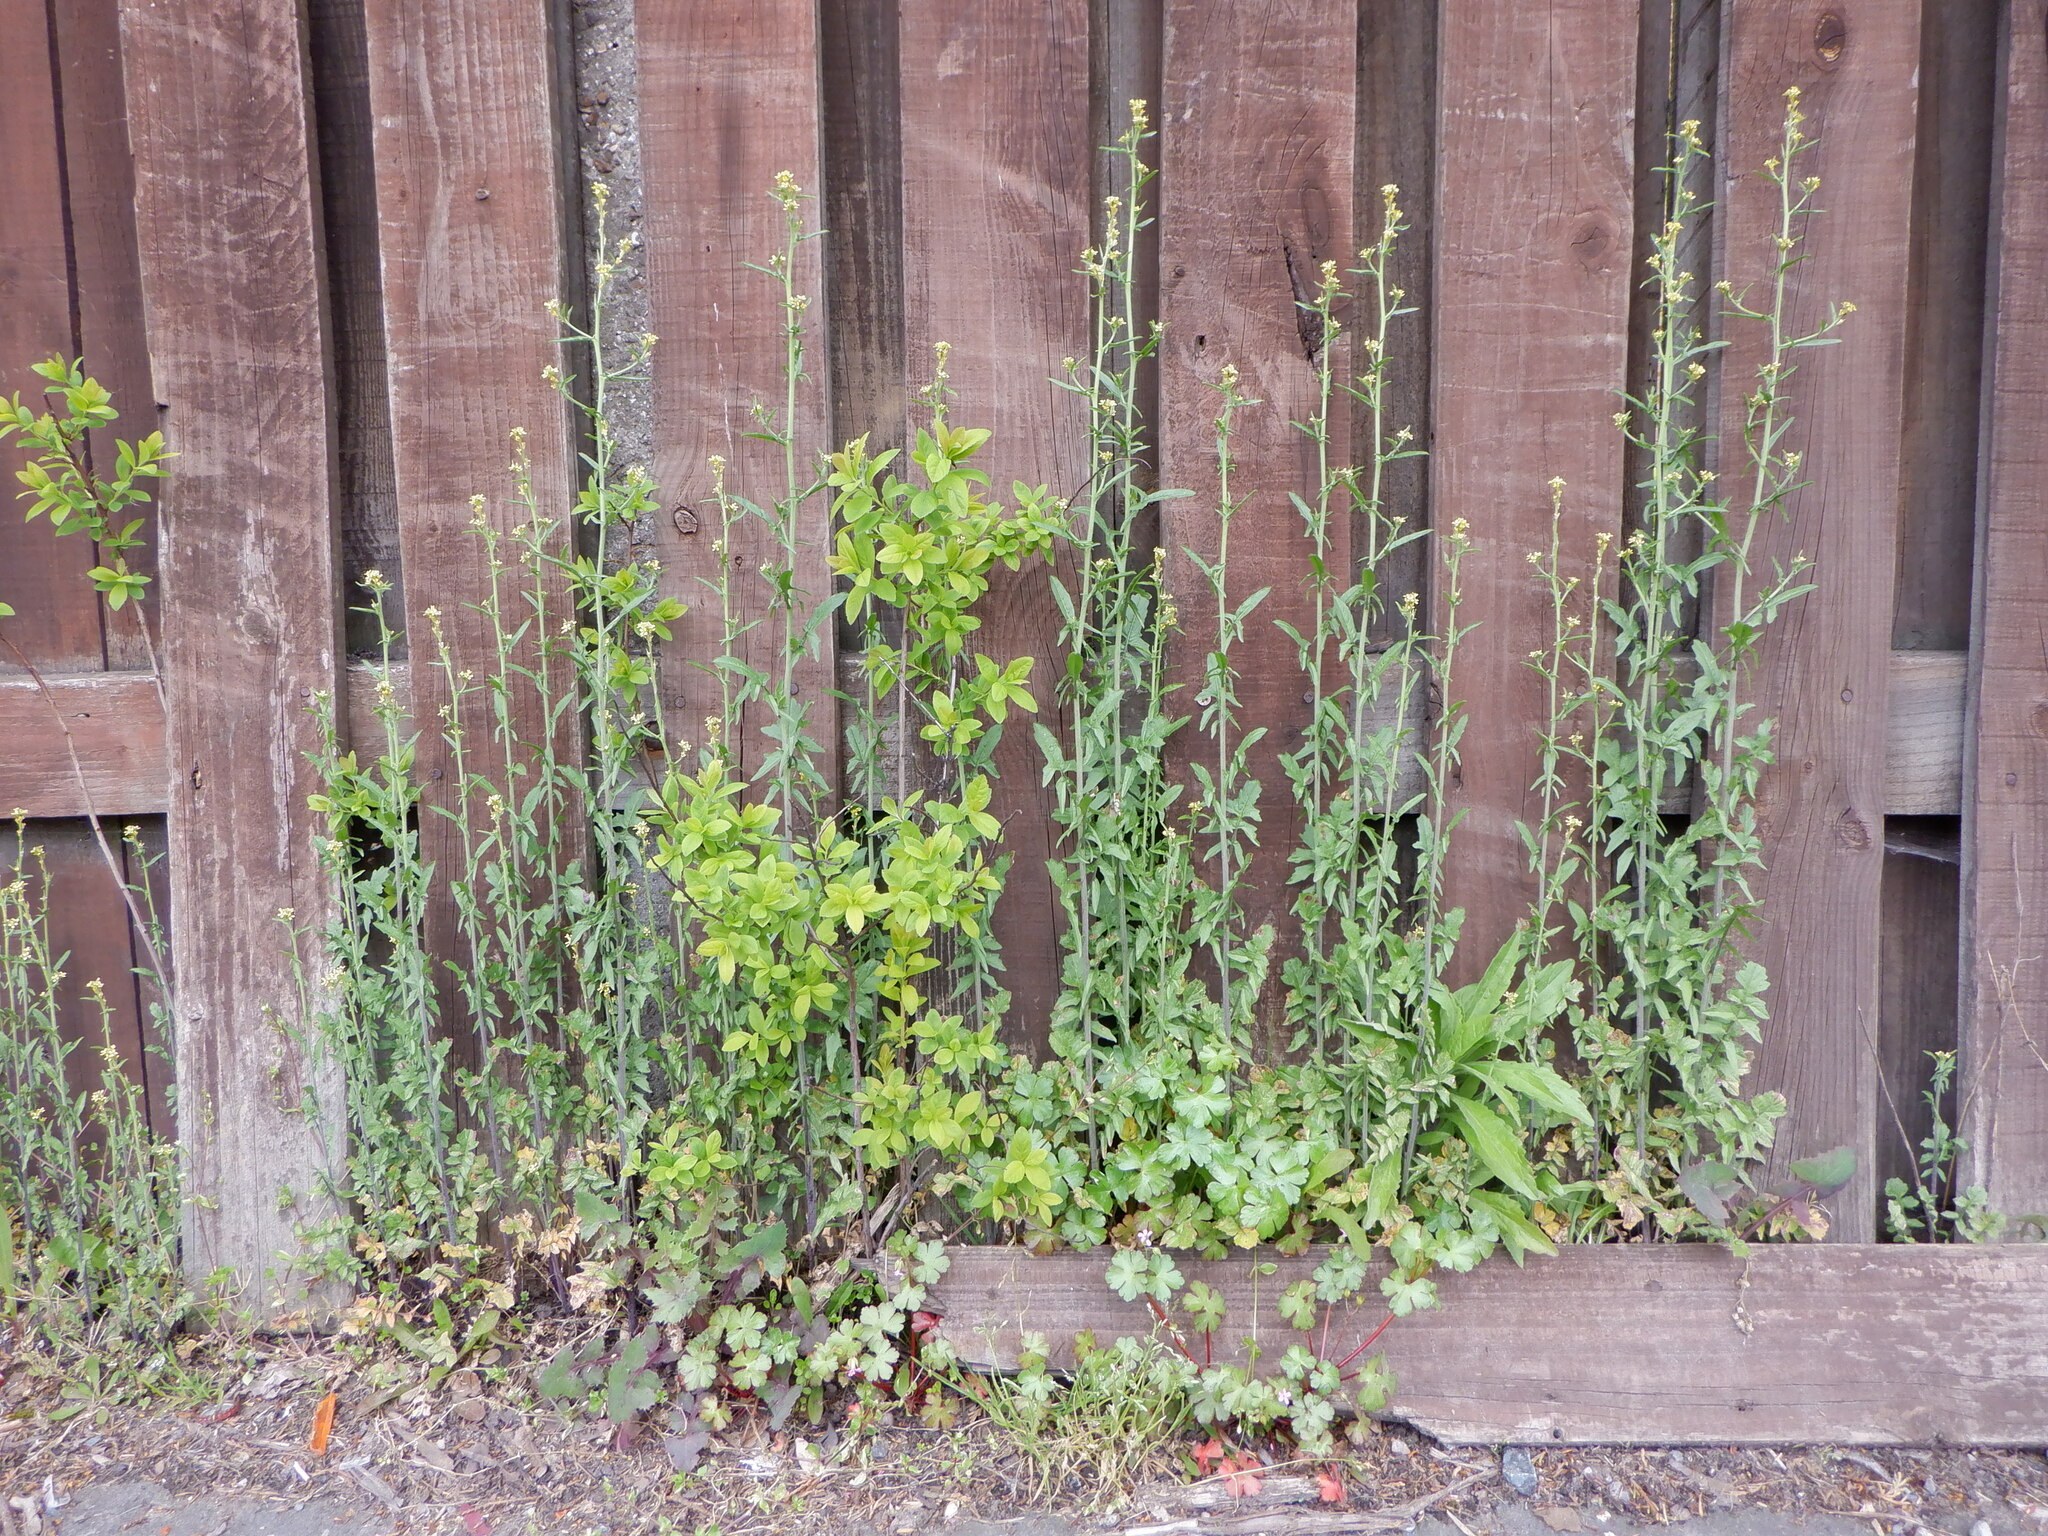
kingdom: Plantae
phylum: Tracheophyta
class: Magnoliopsida
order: Brassicales
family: Brassicaceae
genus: Sisymbrium
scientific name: Sisymbrium officinale
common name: Hedge mustard
